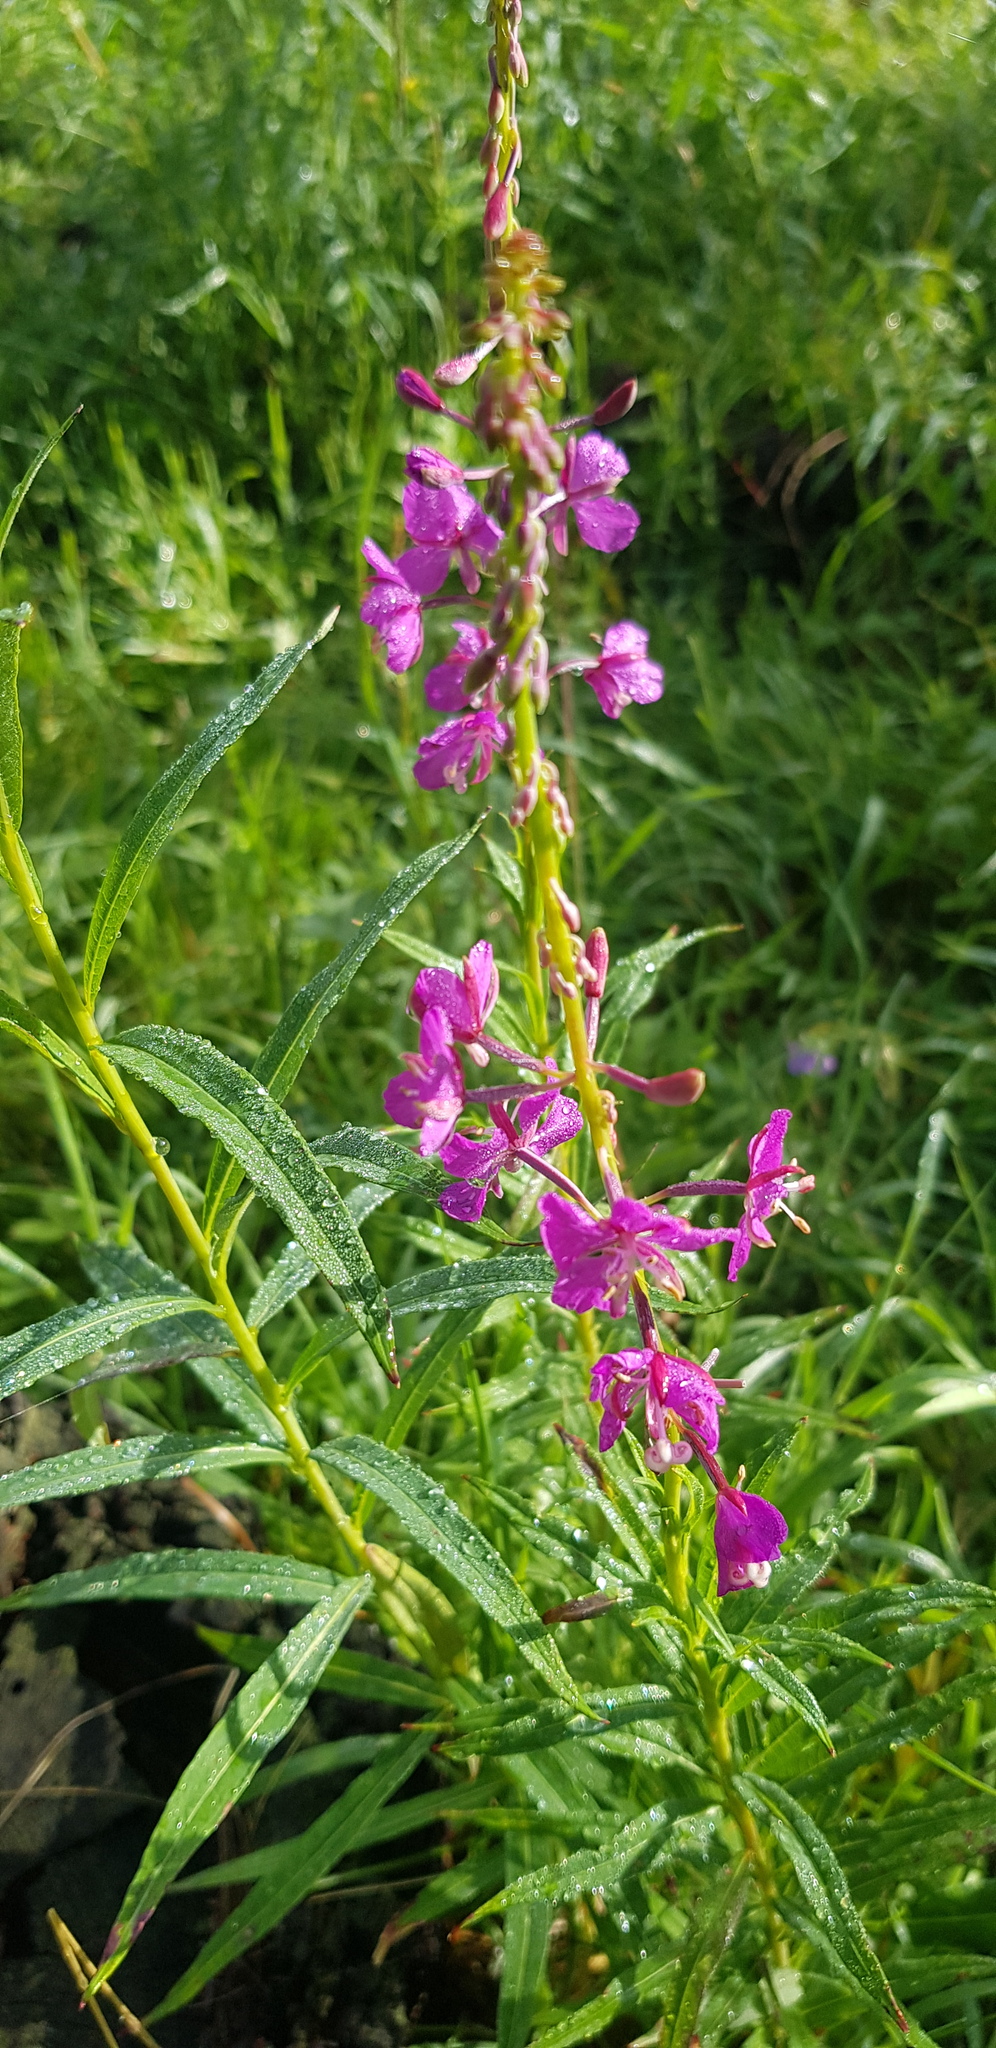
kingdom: Plantae
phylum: Tracheophyta
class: Magnoliopsida
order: Myrtales
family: Onagraceae
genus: Chamaenerion
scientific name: Chamaenerion angustifolium
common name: Fireweed
